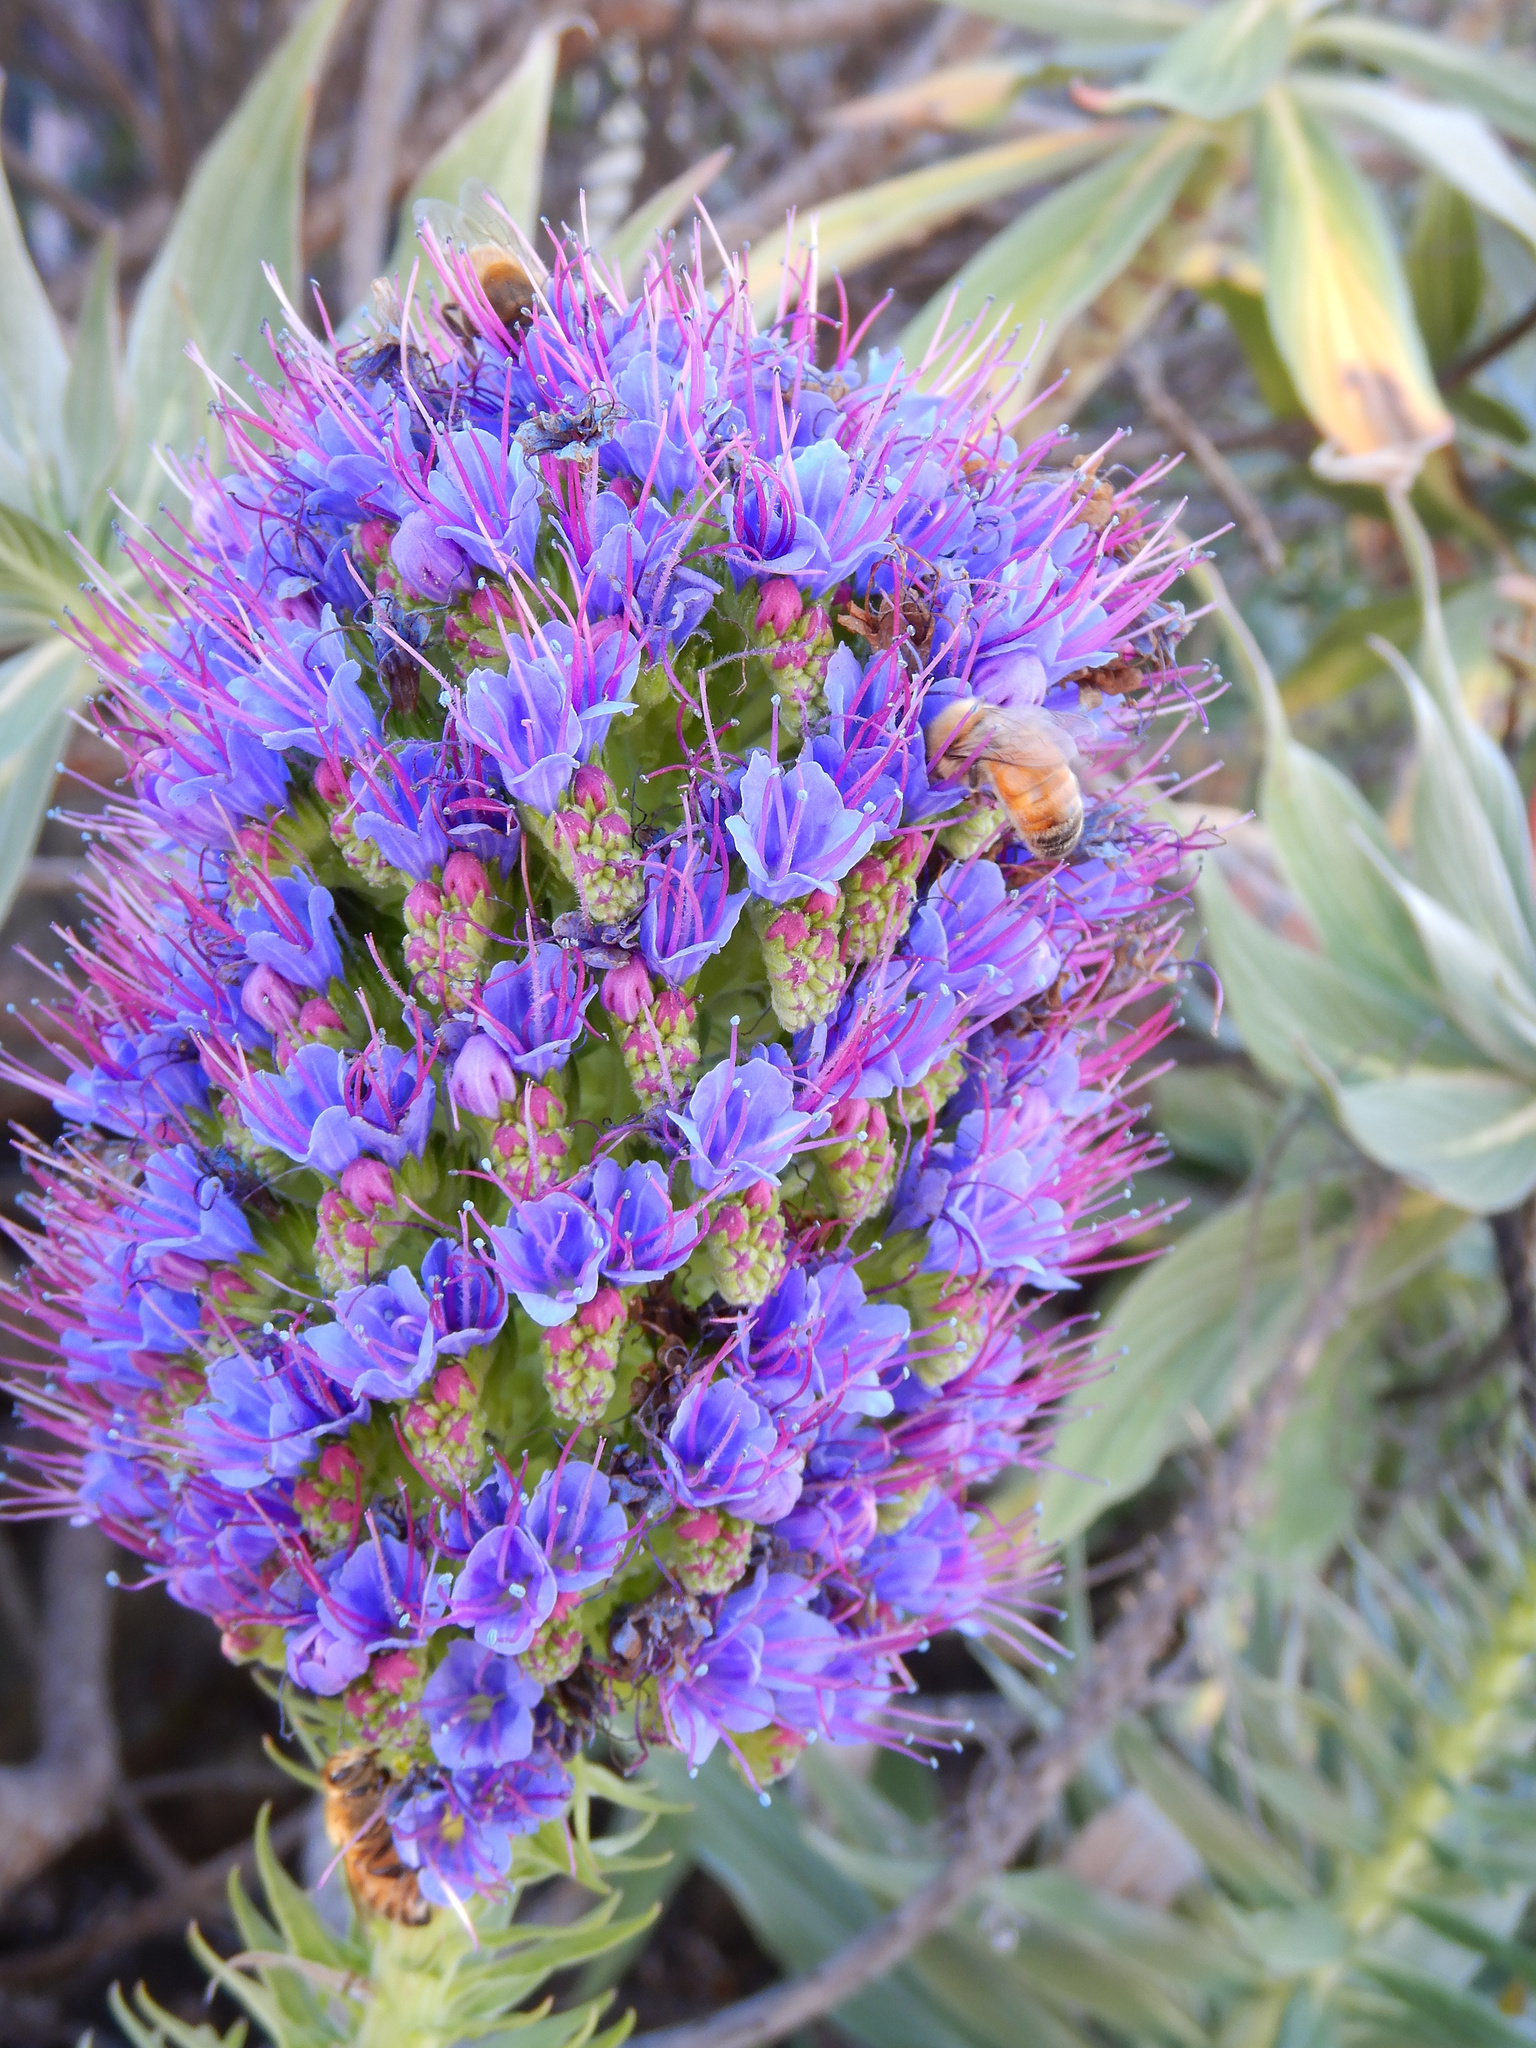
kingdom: Animalia
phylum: Arthropoda
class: Insecta
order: Hymenoptera
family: Apidae
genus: Apis
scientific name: Apis mellifera
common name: Honey bee
